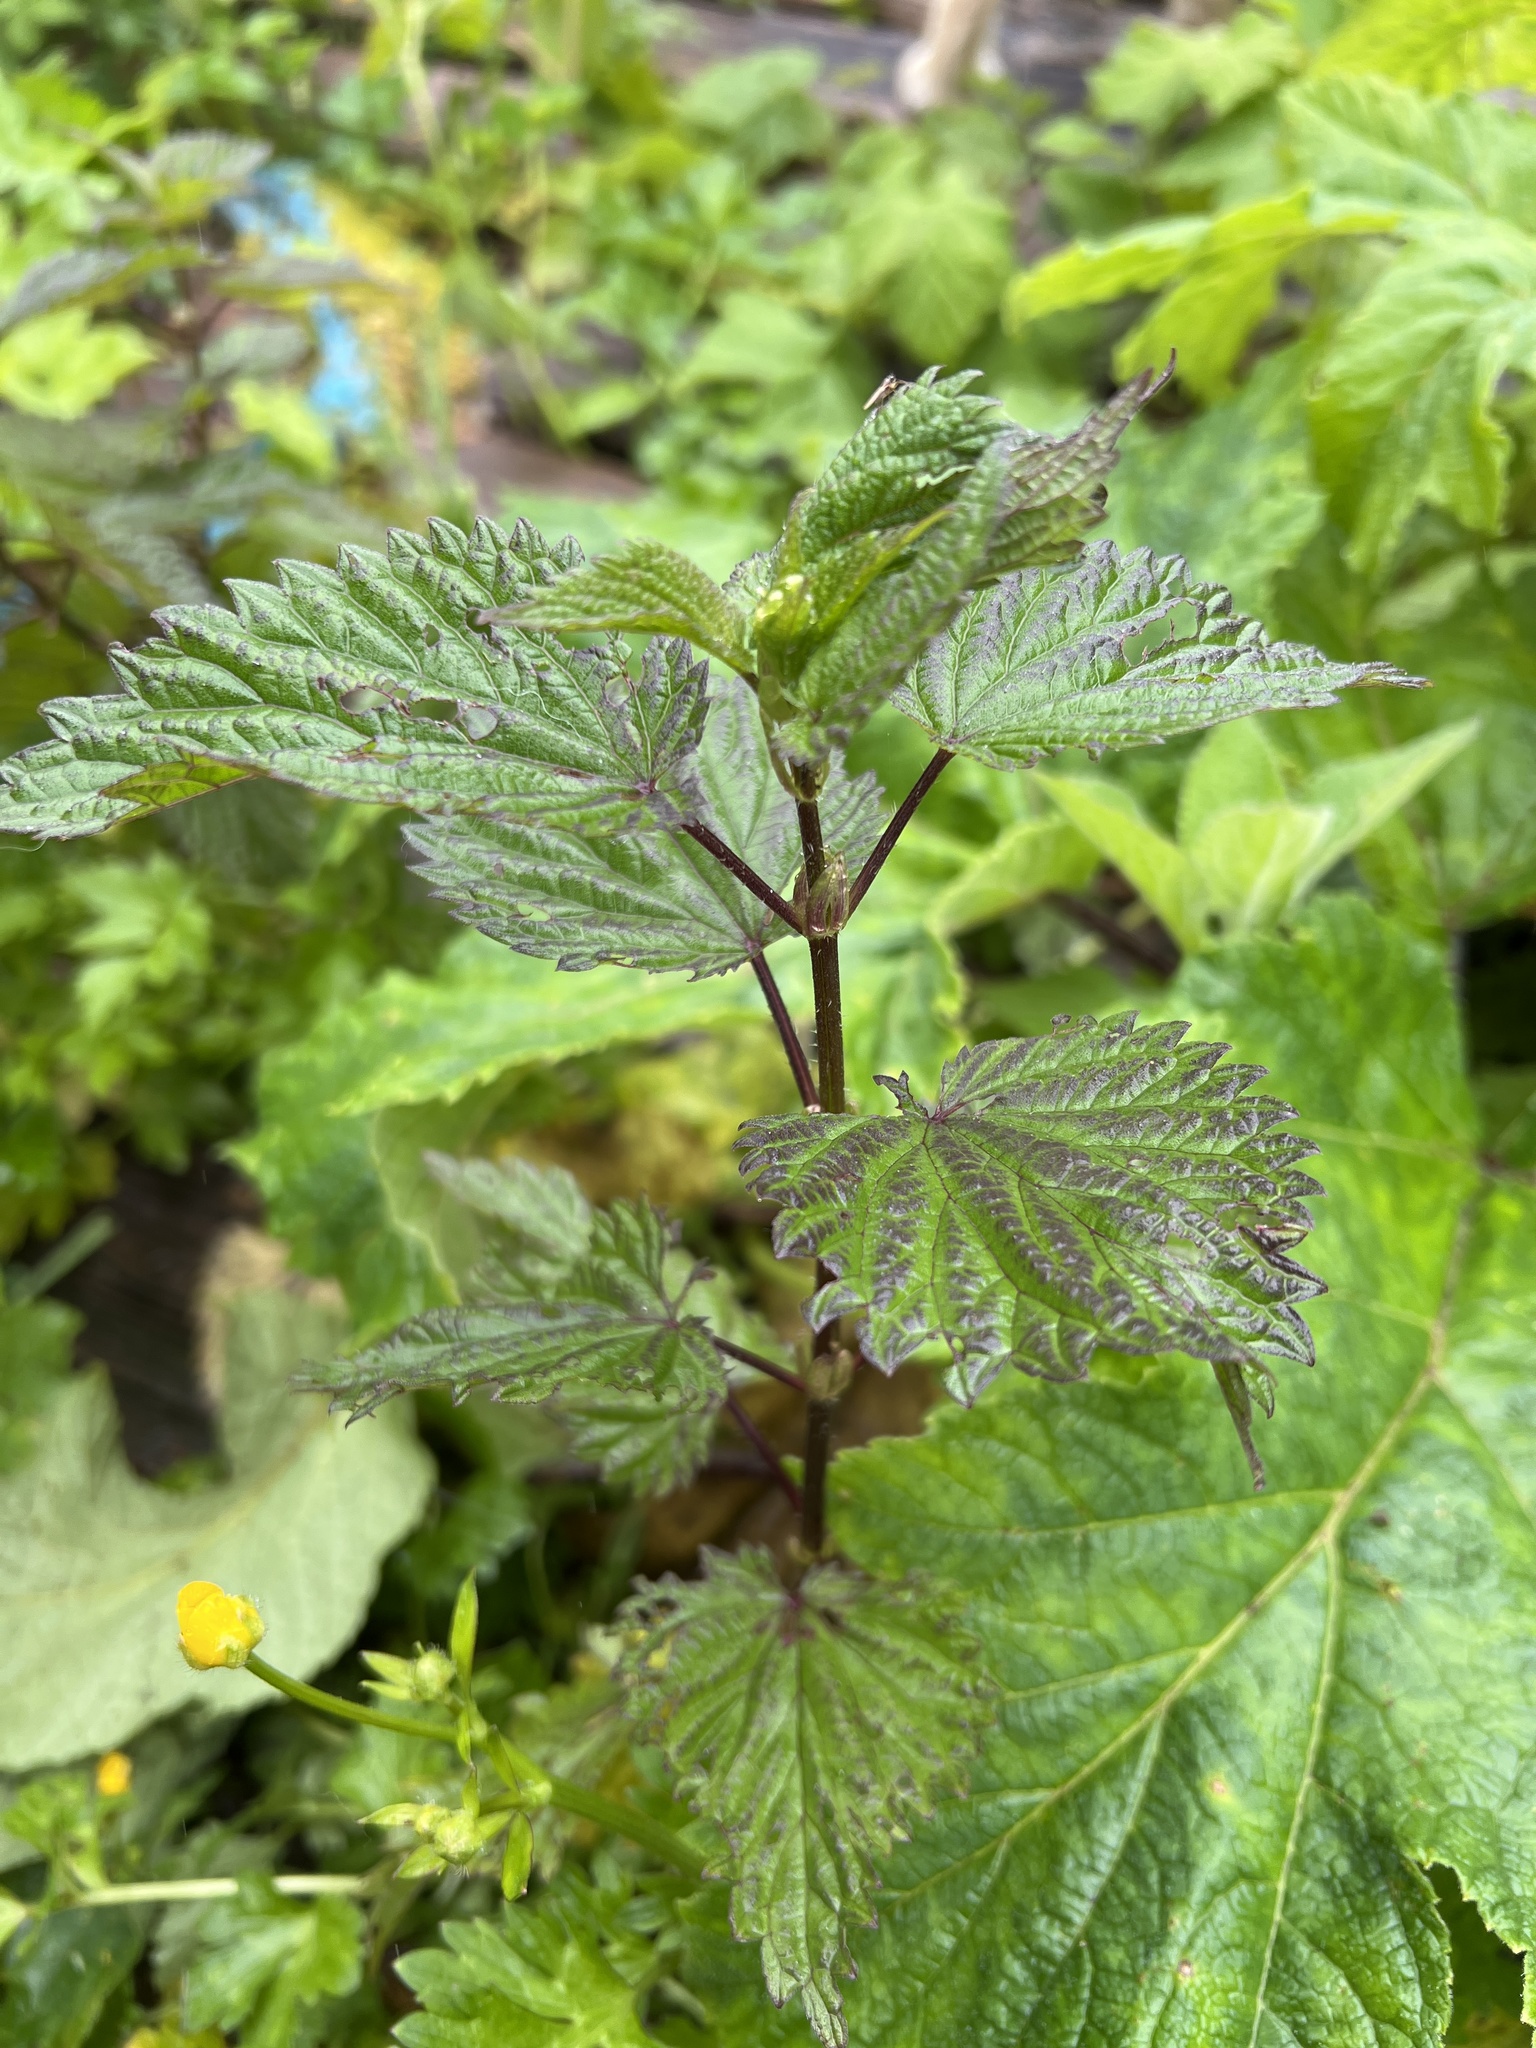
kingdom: Plantae
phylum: Tracheophyta
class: Magnoliopsida
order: Rosales
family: Urticaceae
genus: Urtica
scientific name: Urtica dioica
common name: Common nettle
